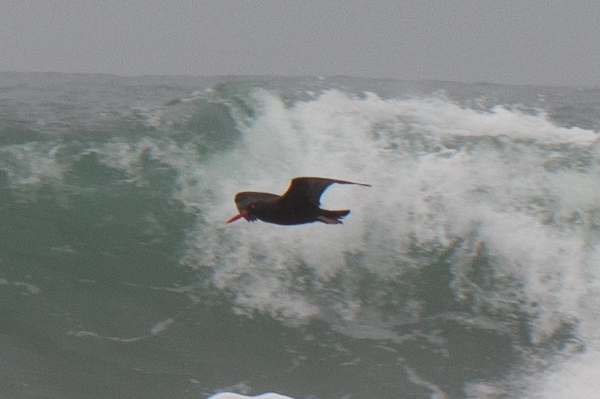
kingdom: Animalia
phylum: Chordata
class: Aves
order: Charadriiformes
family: Haematopodidae
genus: Haematopus
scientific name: Haematopus bachmani
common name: Black oystercatcher
